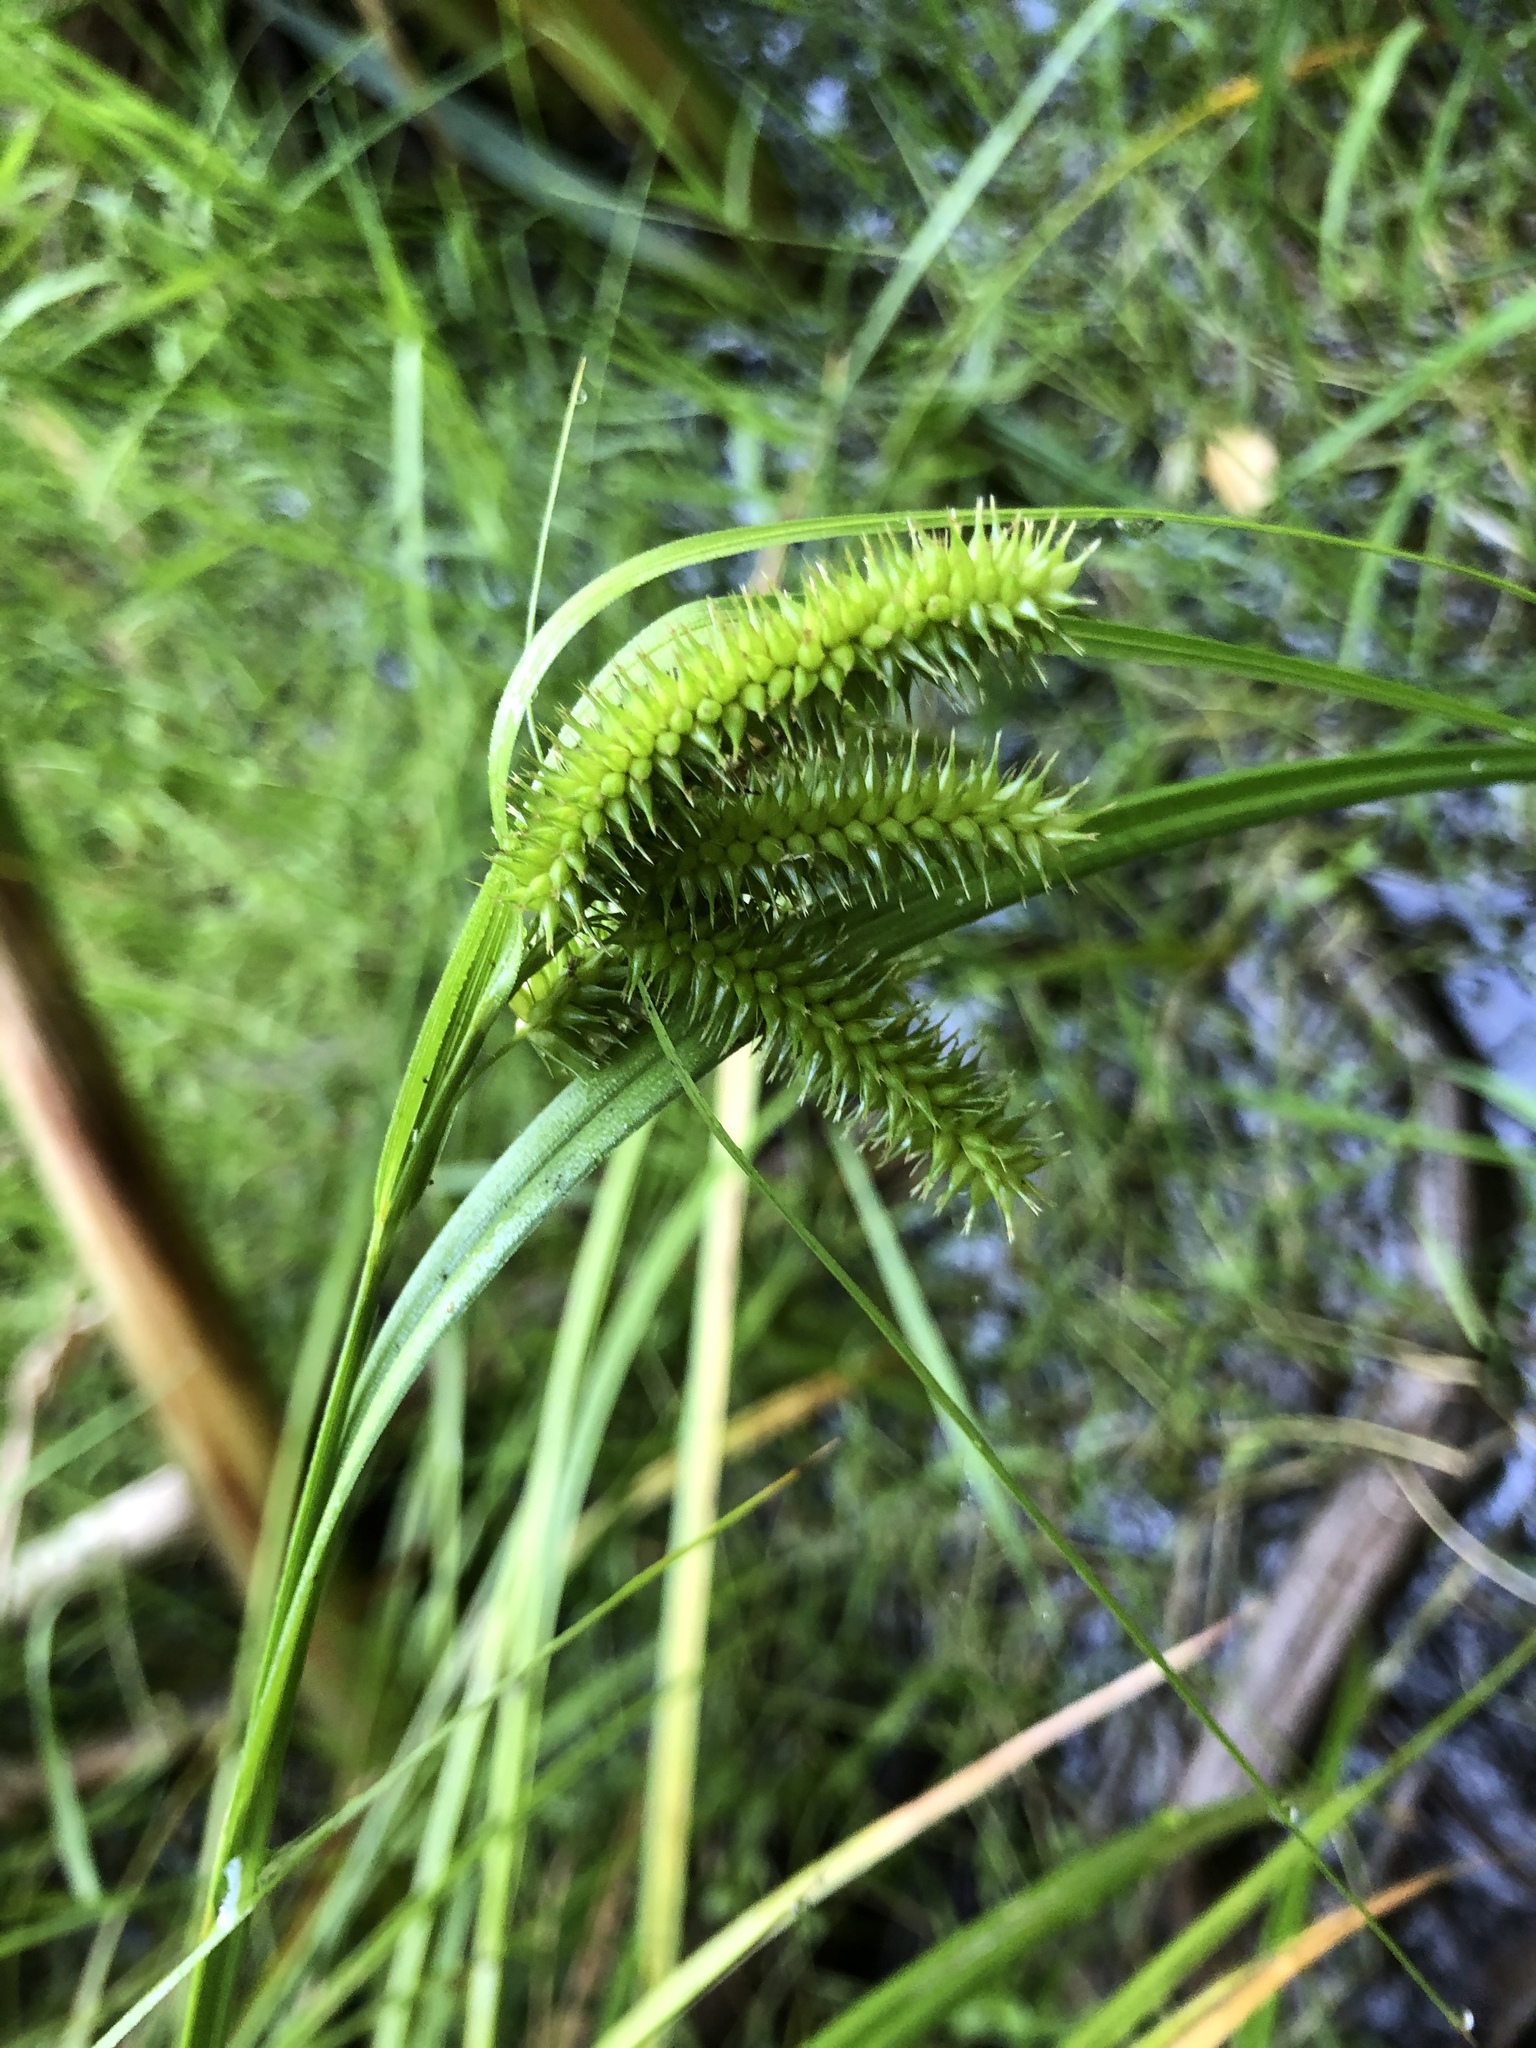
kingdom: Plantae
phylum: Tracheophyta
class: Liliopsida
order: Poales
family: Cyperaceae
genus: Carex
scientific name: Carex pseudocyperus
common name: Cyperus sedge
